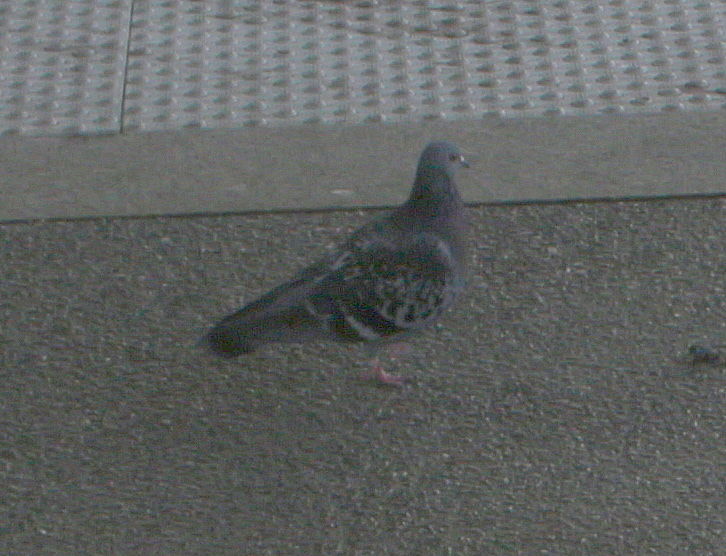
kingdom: Animalia
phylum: Chordata
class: Aves
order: Columbiformes
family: Columbidae
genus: Columba
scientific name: Columba livia
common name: Rock pigeon
